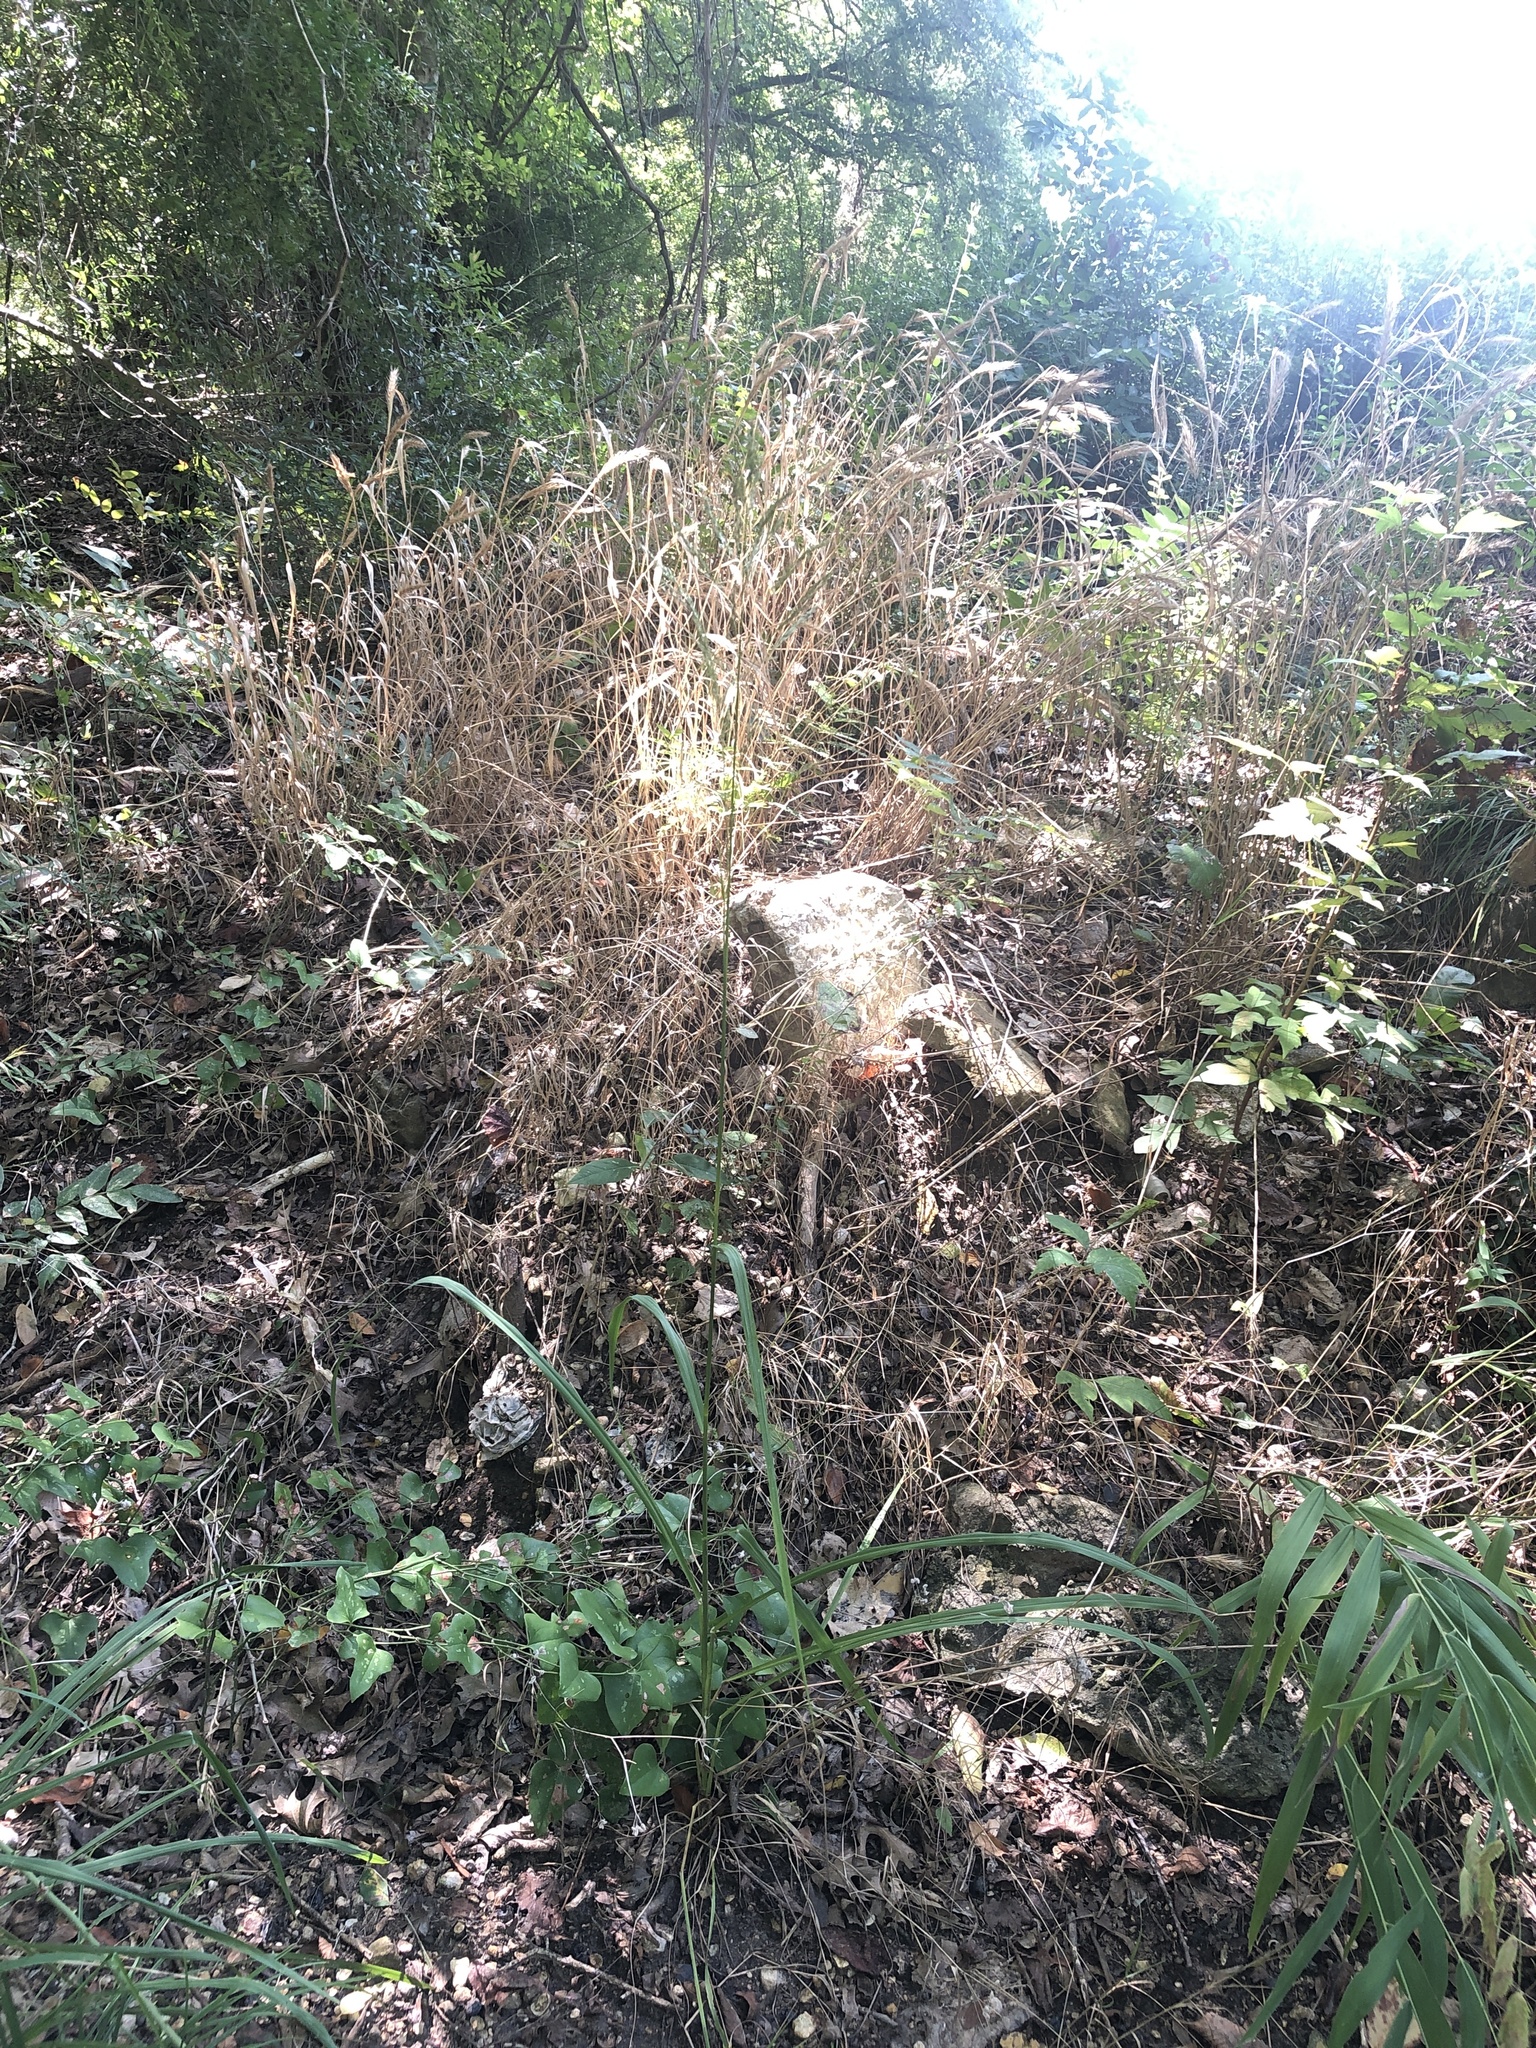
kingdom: Plantae
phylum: Tracheophyta
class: Liliopsida
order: Poales
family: Poaceae
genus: Tridens
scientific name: Tridens flavus
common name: Purpletop
